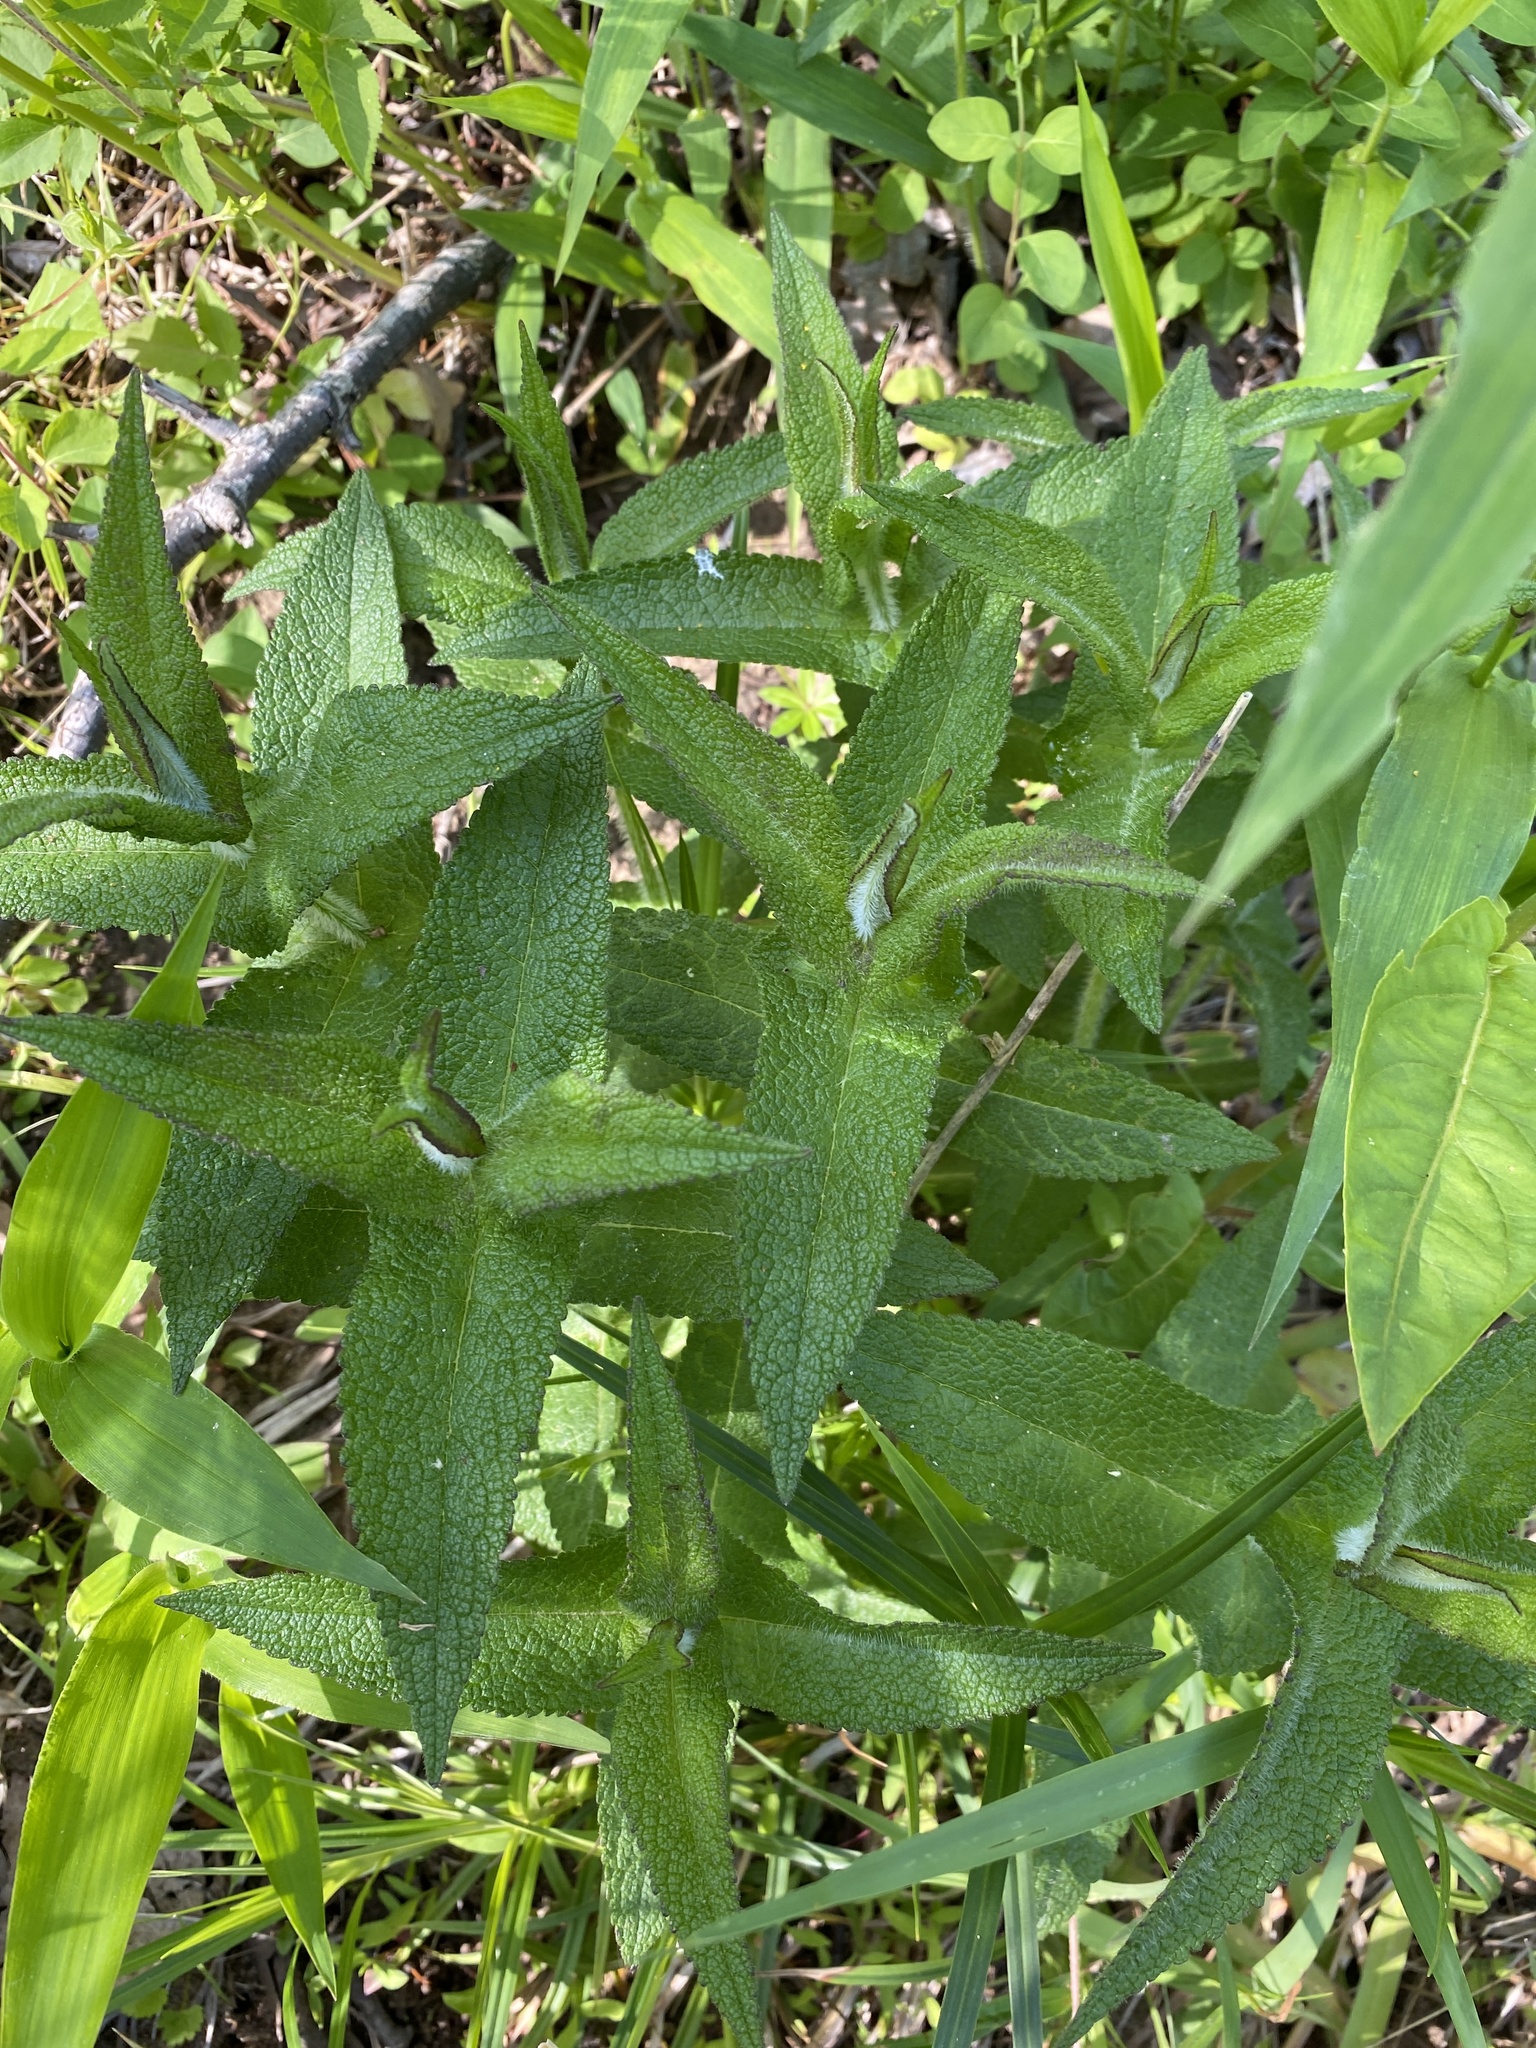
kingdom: Plantae
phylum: Tracheophyta
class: Magnoliopsida
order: Asterales
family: Asteraceae
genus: Eupatorium
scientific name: Eupatorium perfoliatum
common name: Boneset
